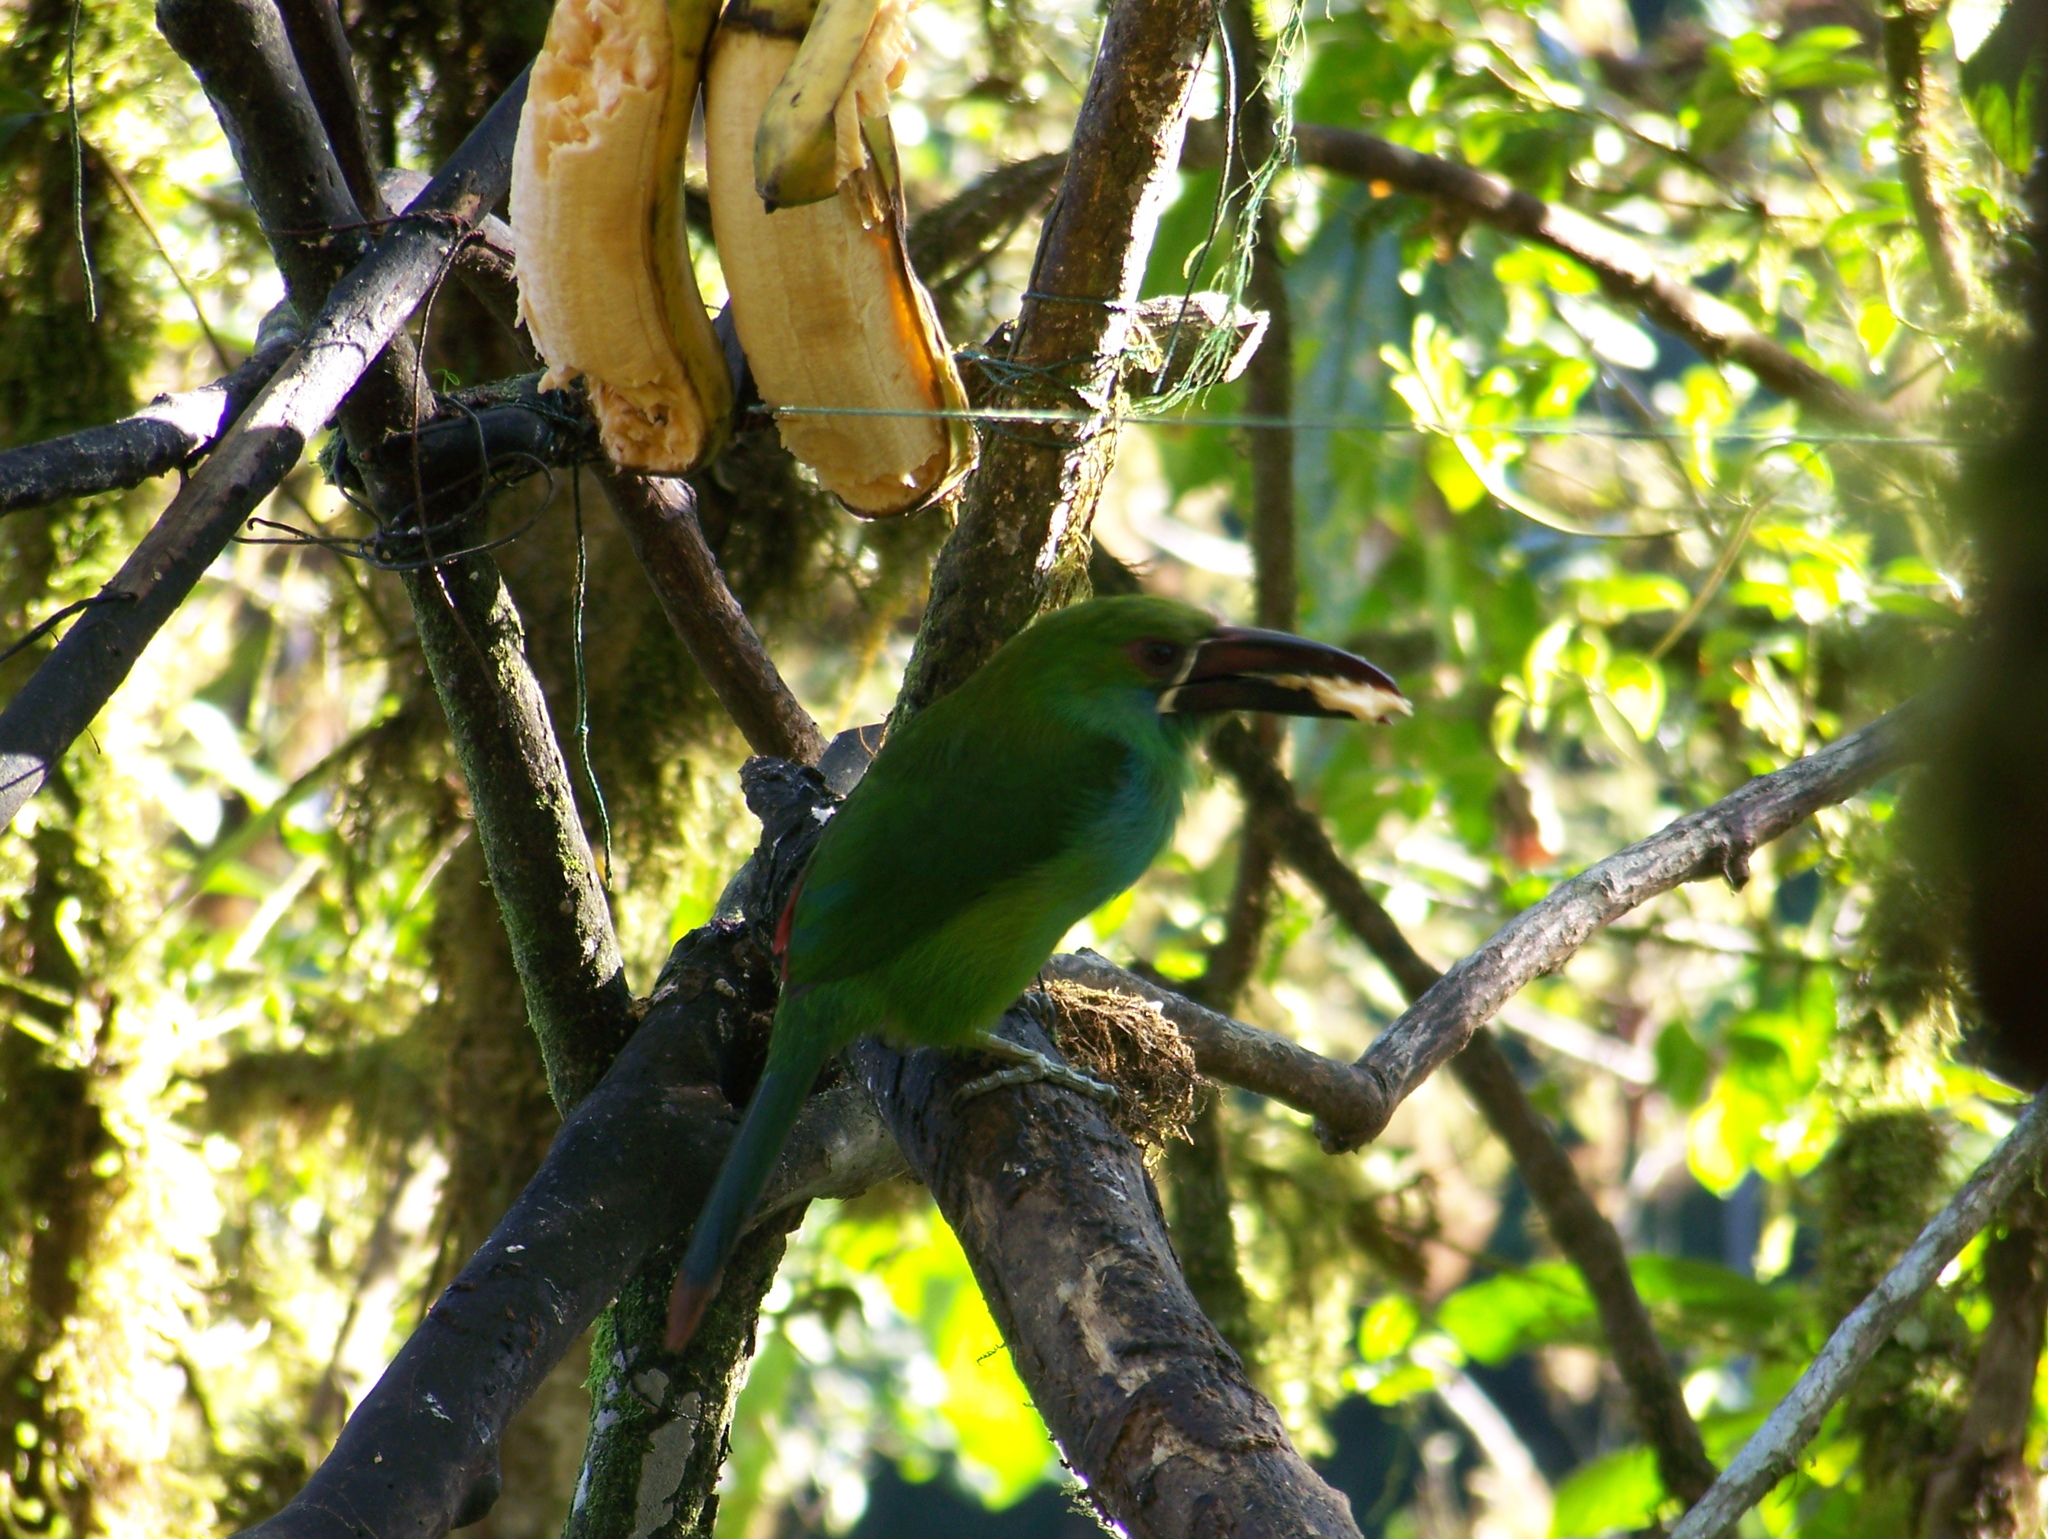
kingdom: Animalia
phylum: Chordata
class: Aves
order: Piciformes
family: Ramphastidae
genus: Aulacorhynchus
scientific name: Aulacorhynchus haematopygus
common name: Crimson-rumped toucanet
